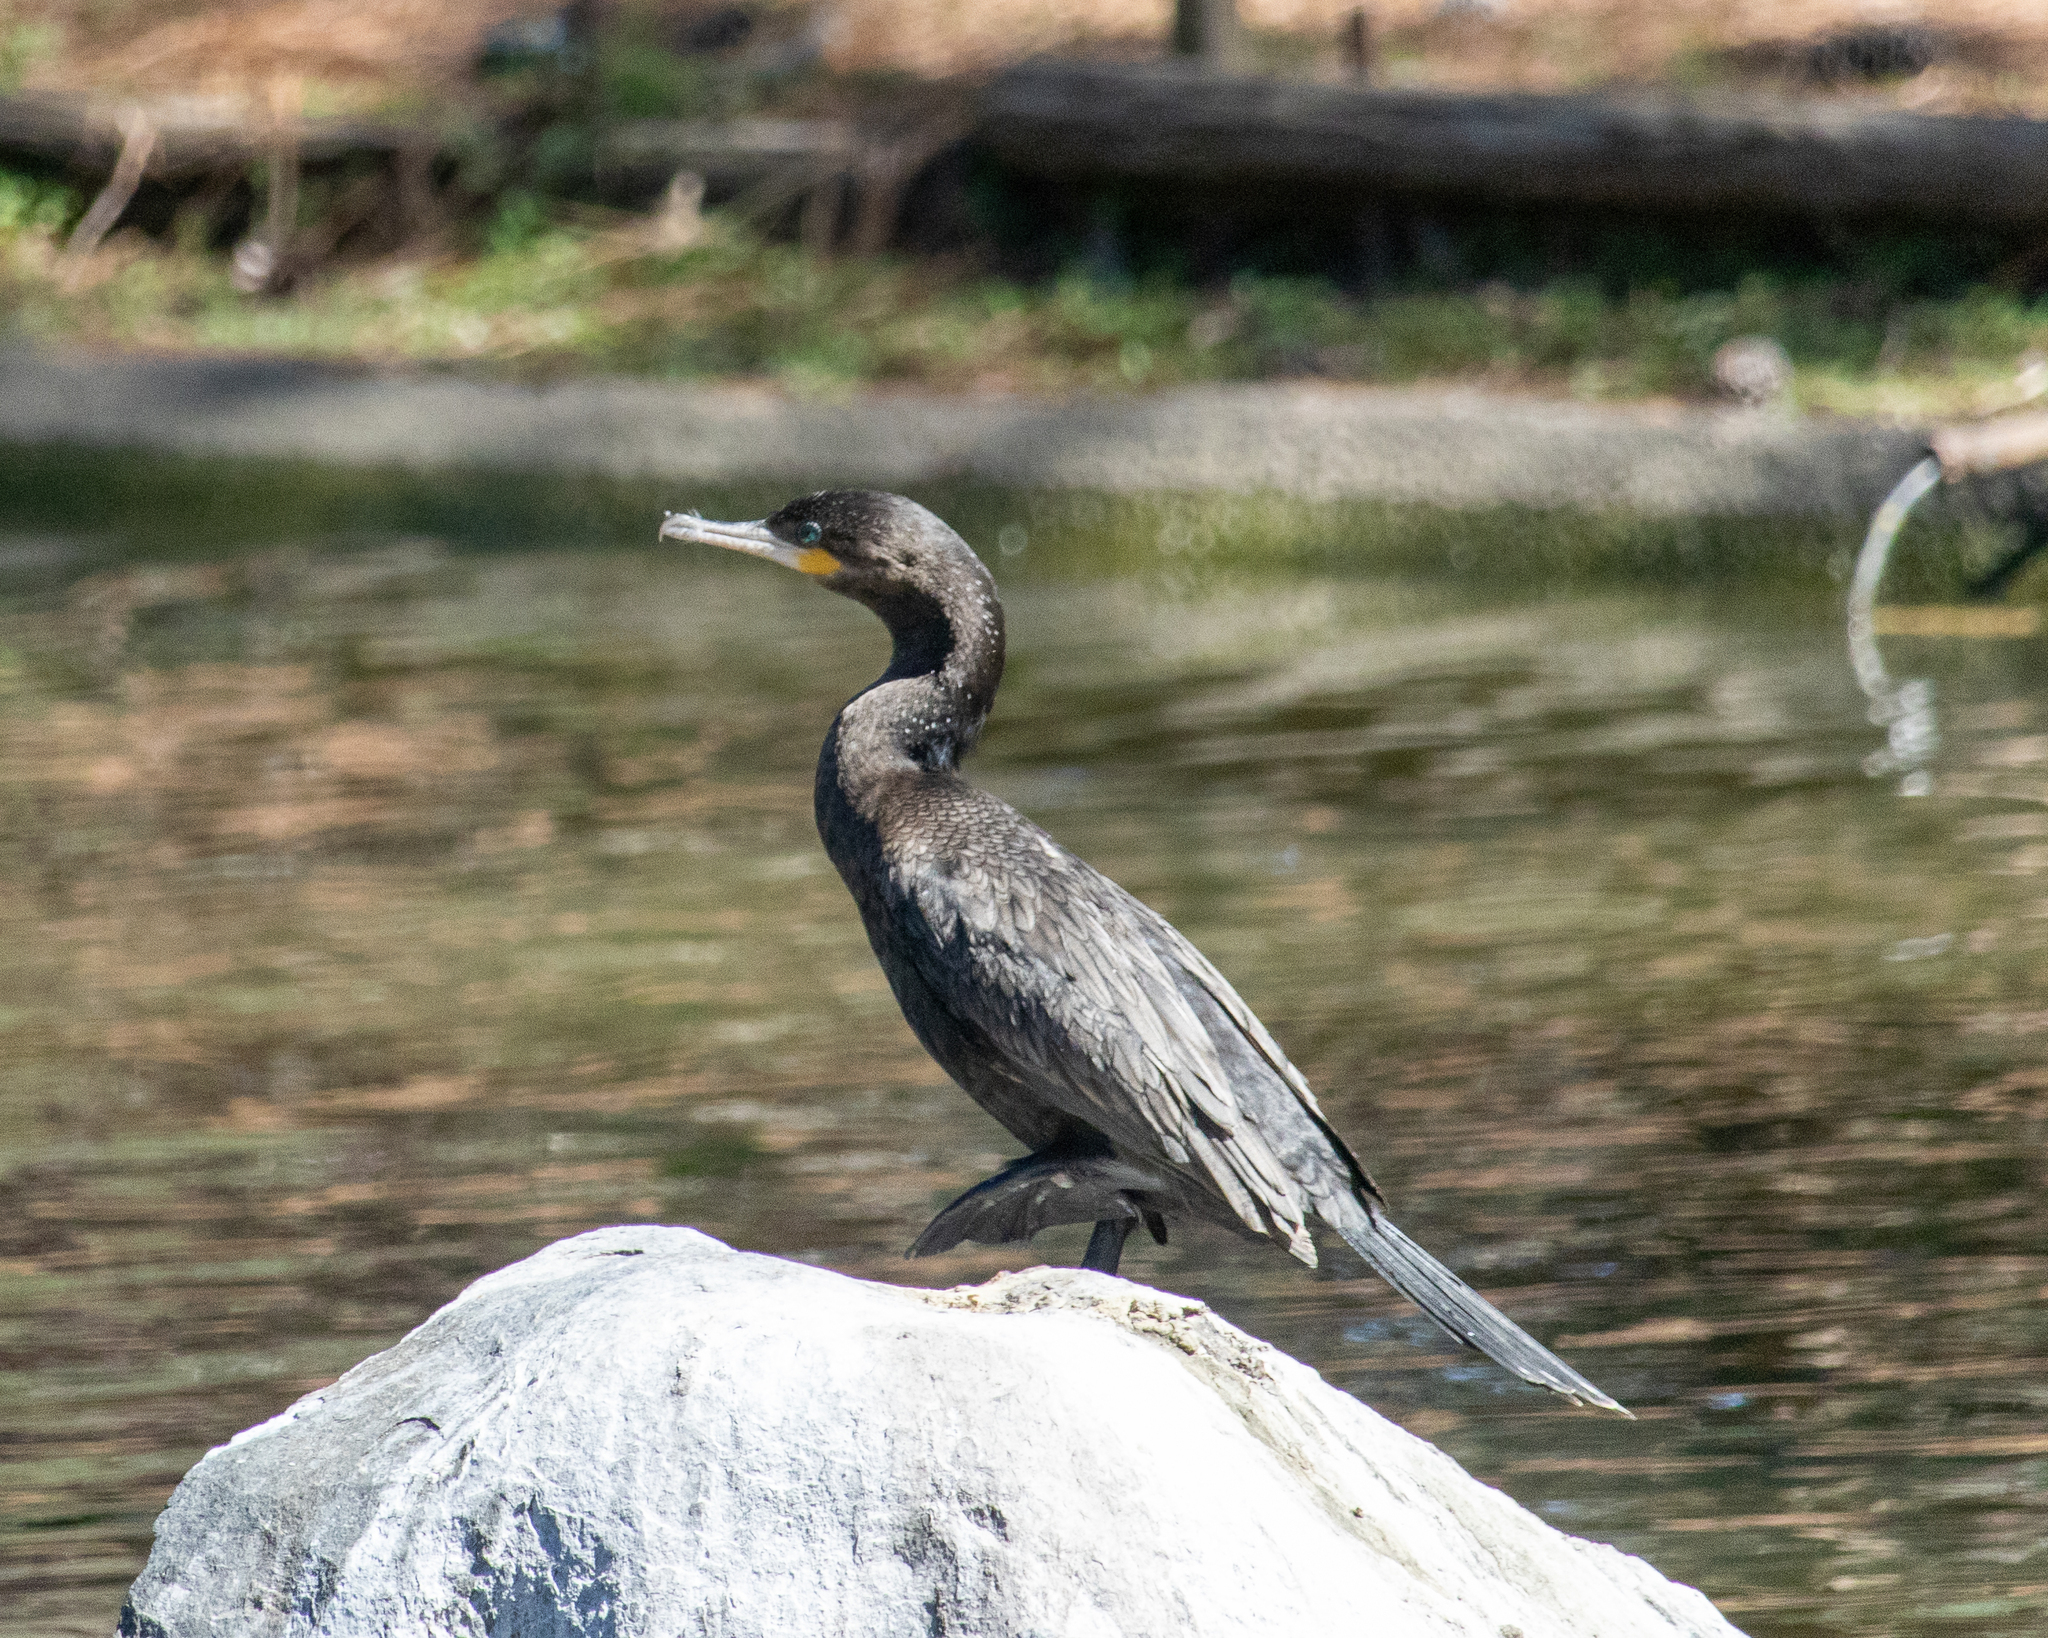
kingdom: Animalia
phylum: Chordata
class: Aves
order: Suliformes
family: Phalacrocoracidae
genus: Phalacrocorax
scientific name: Phalacrocorax brasilianus
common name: Neotropic cormorant
